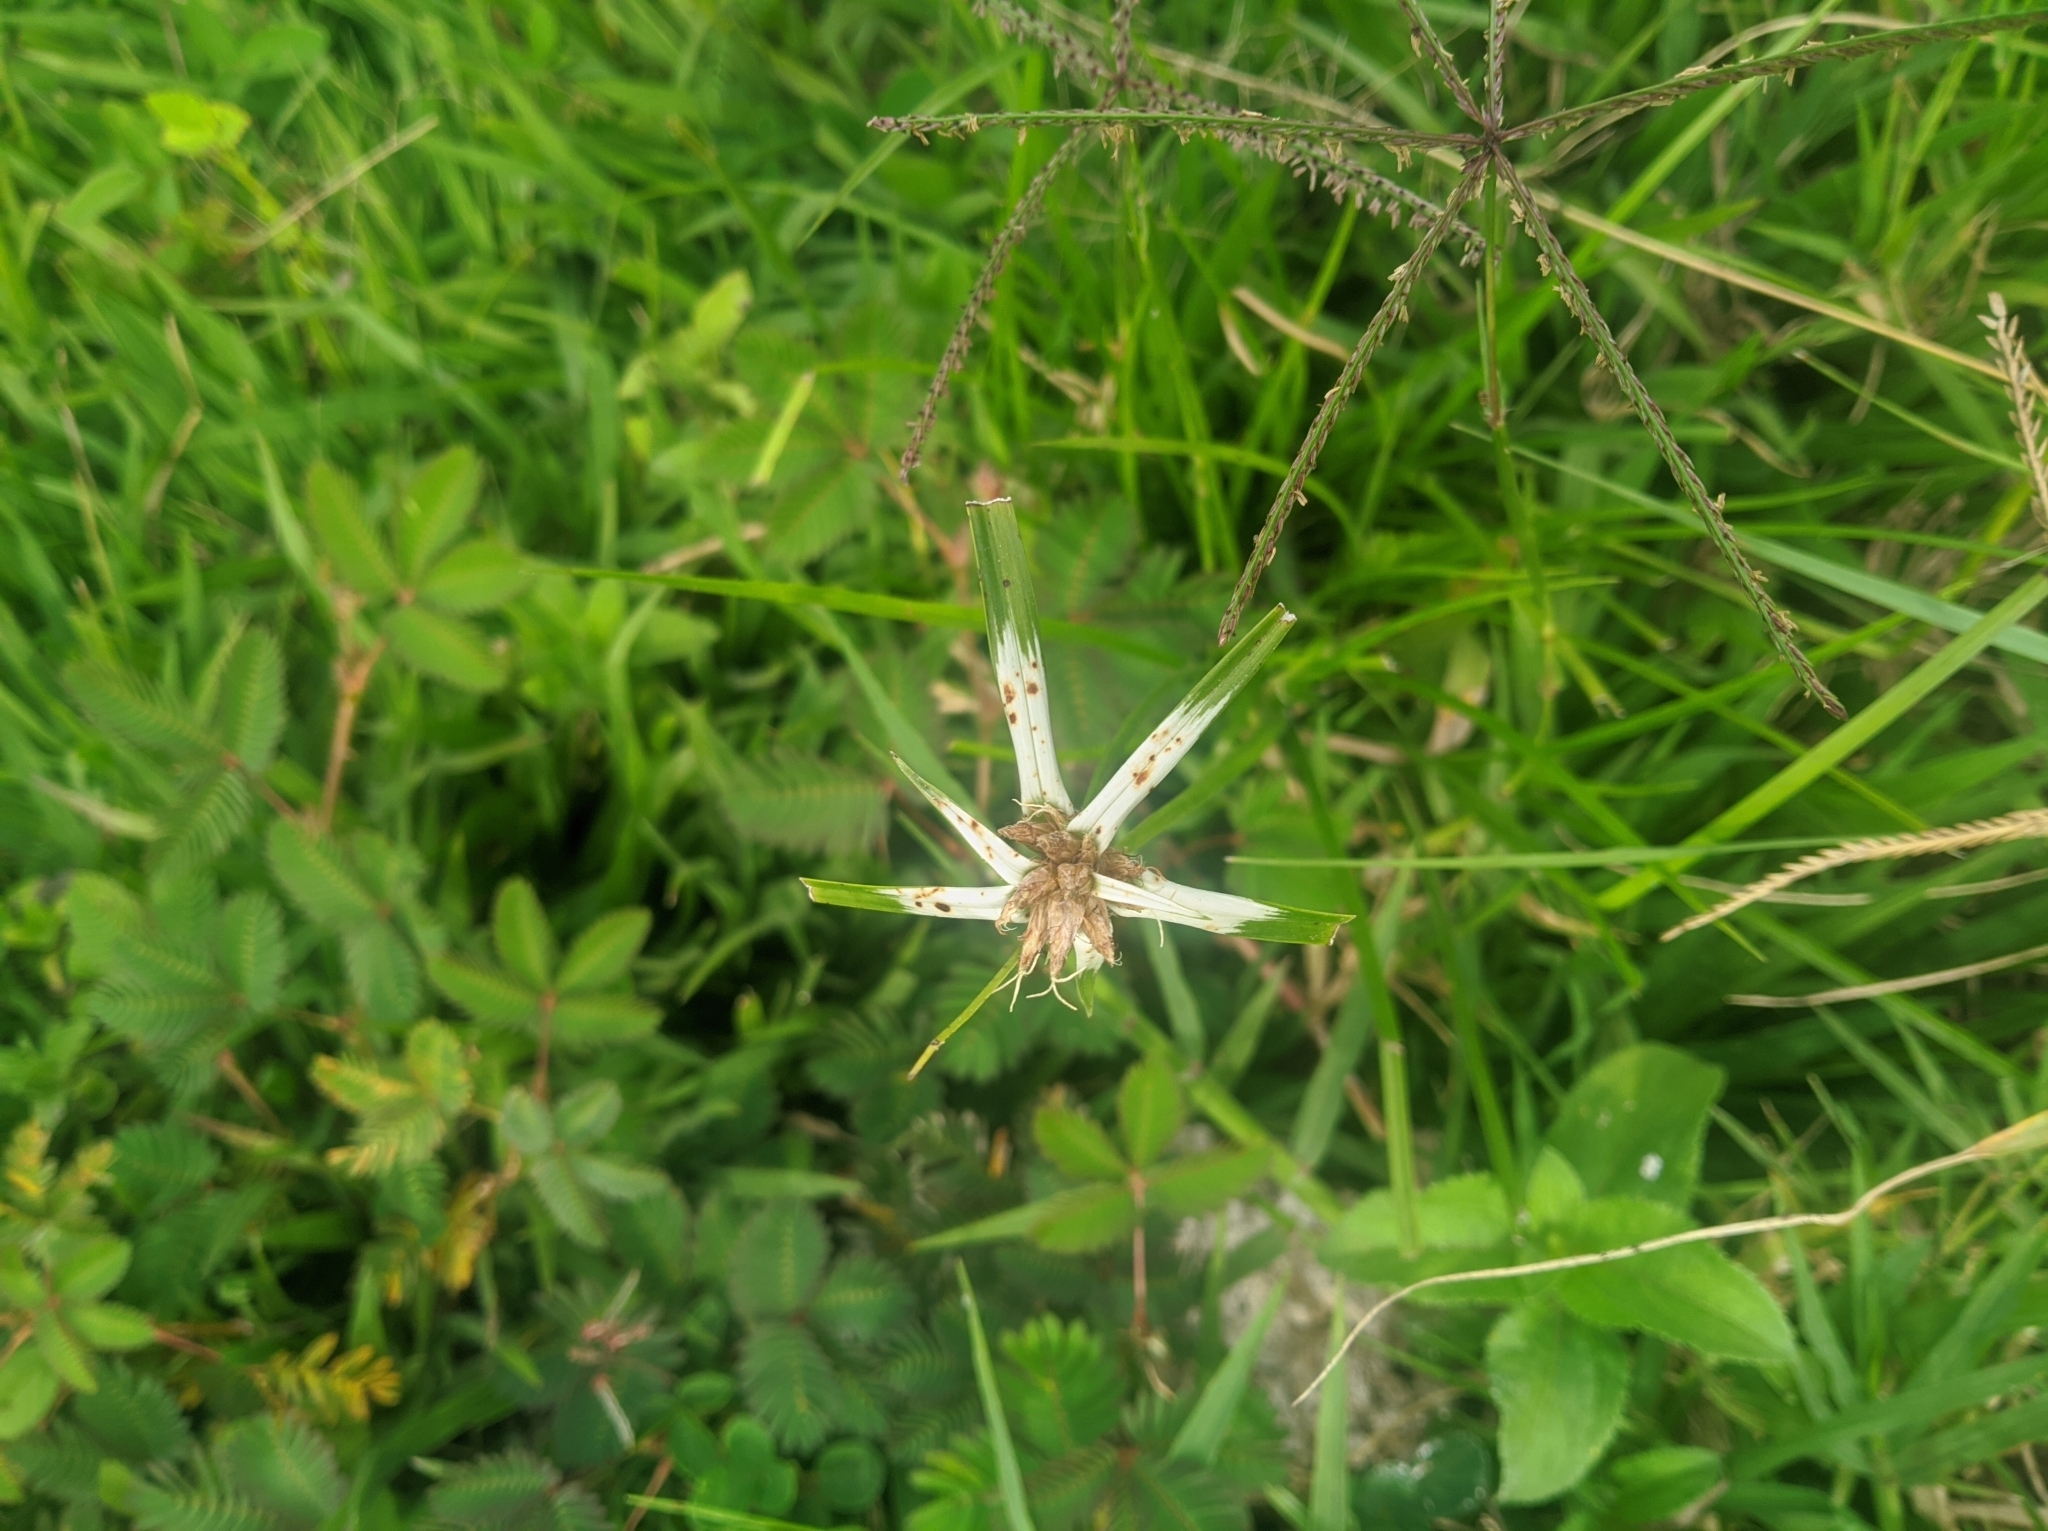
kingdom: Plantae
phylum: Tracheophyta
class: Liliopsida
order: Poales
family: Cyperaceae
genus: Rhynchospora
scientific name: Rhynchospora nervosa
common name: Star sedge
